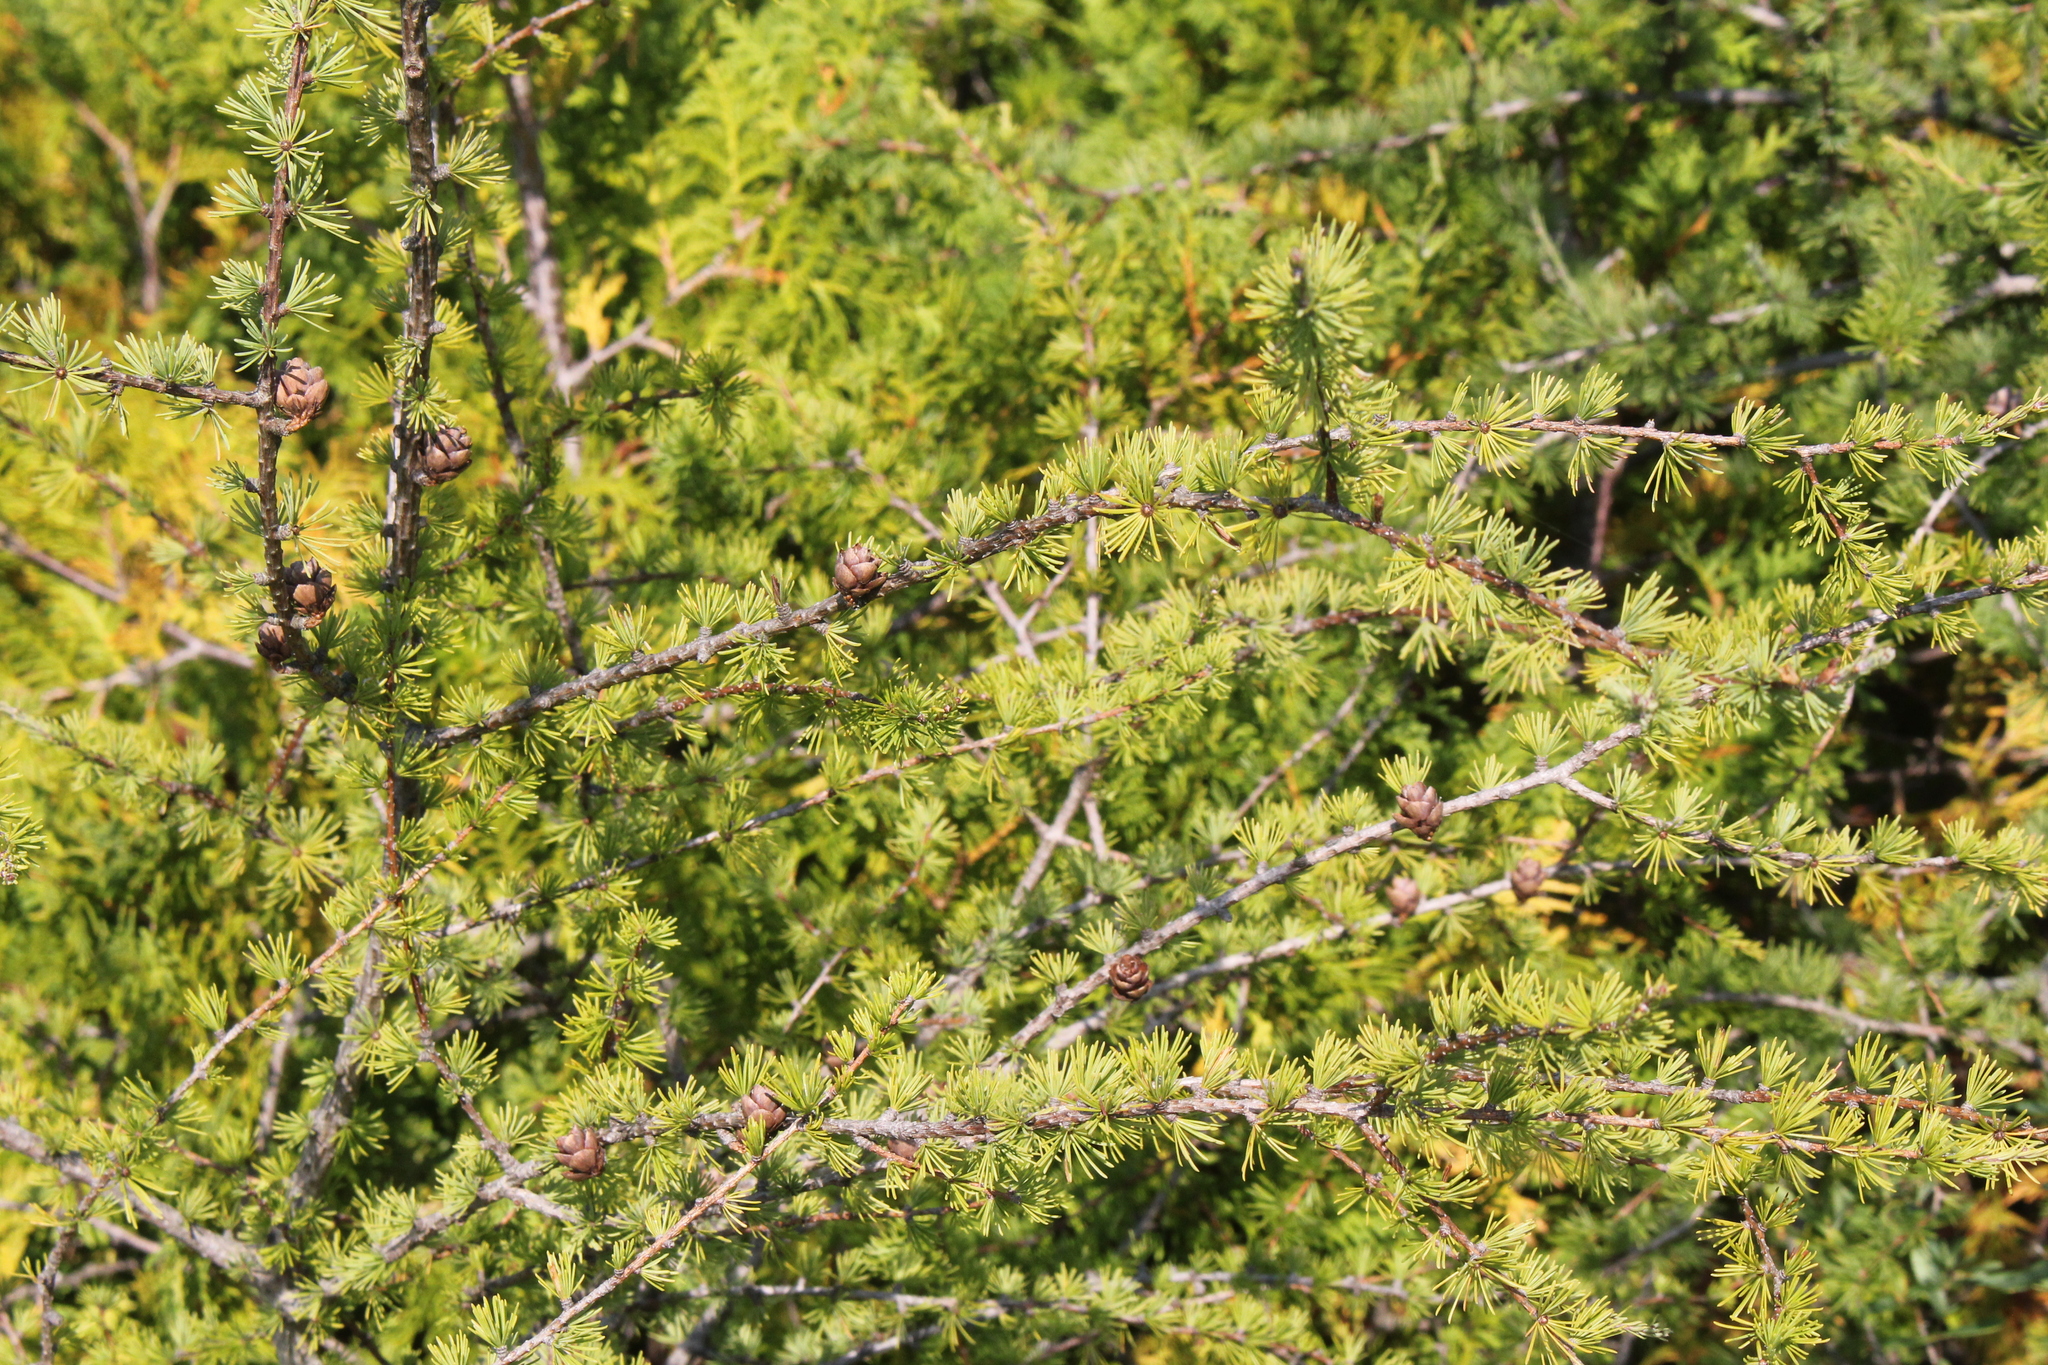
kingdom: Plantae
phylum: Tracheophyta
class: Pinopsida
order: Pinales
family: Pinaceae
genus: Larix
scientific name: Larix laricina
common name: American larch
